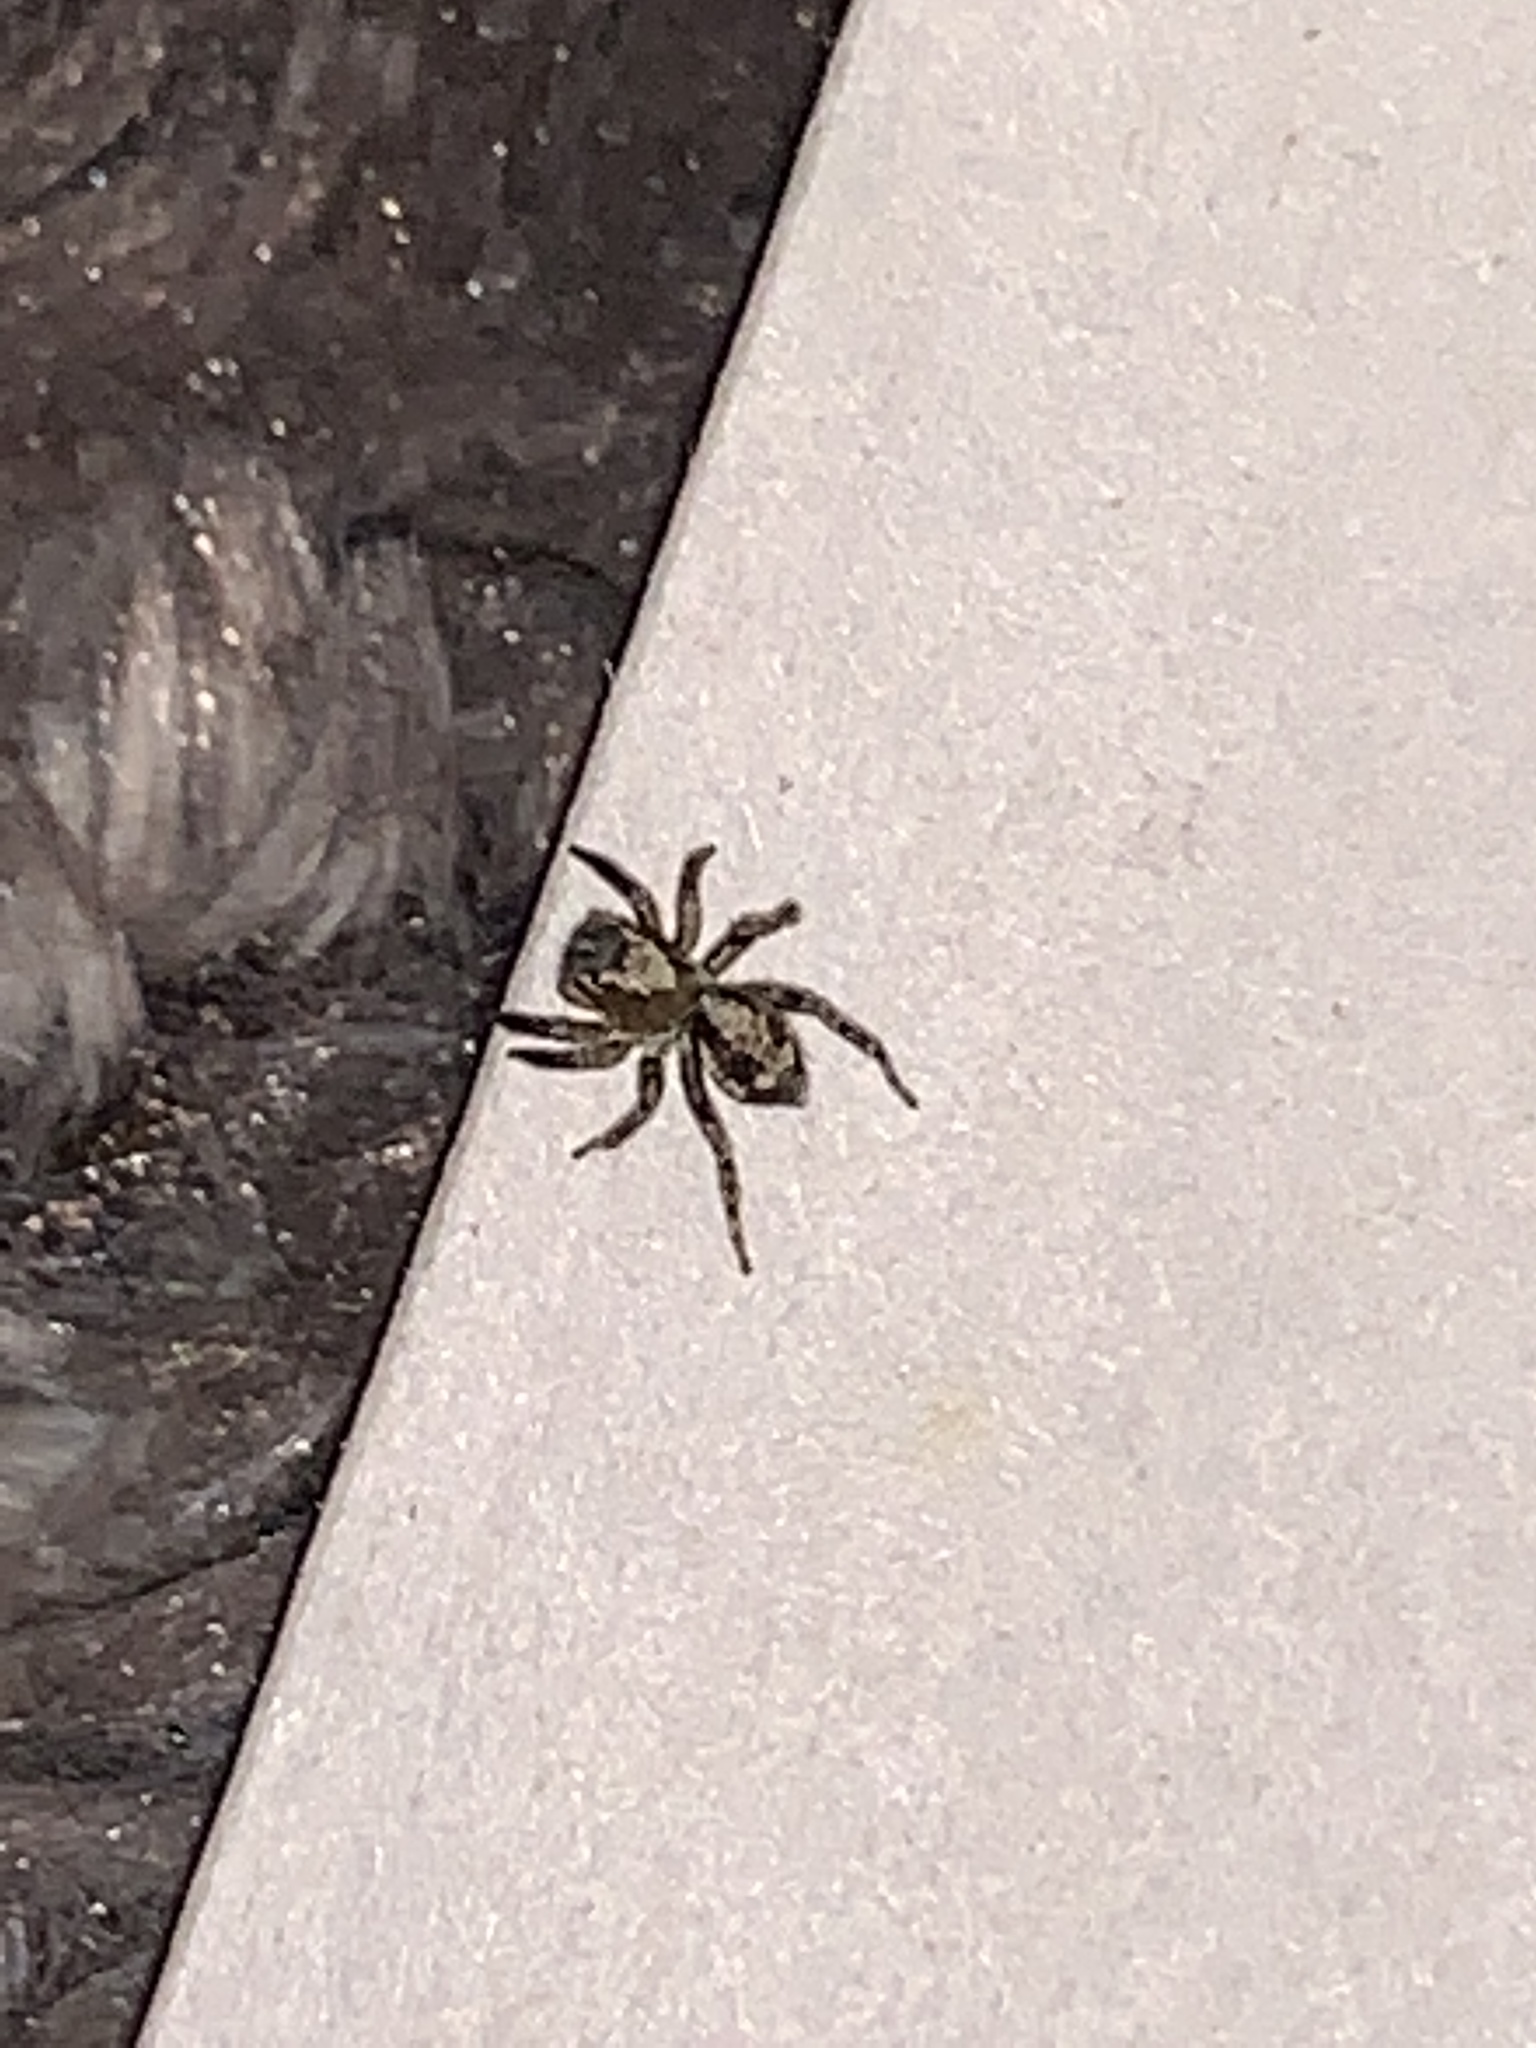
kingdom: Animalia
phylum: Arthropoda
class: Arachnida
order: Araneae
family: Salticidae
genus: Naphrys
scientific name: Naphrys pulex
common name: Flea jumping spider
